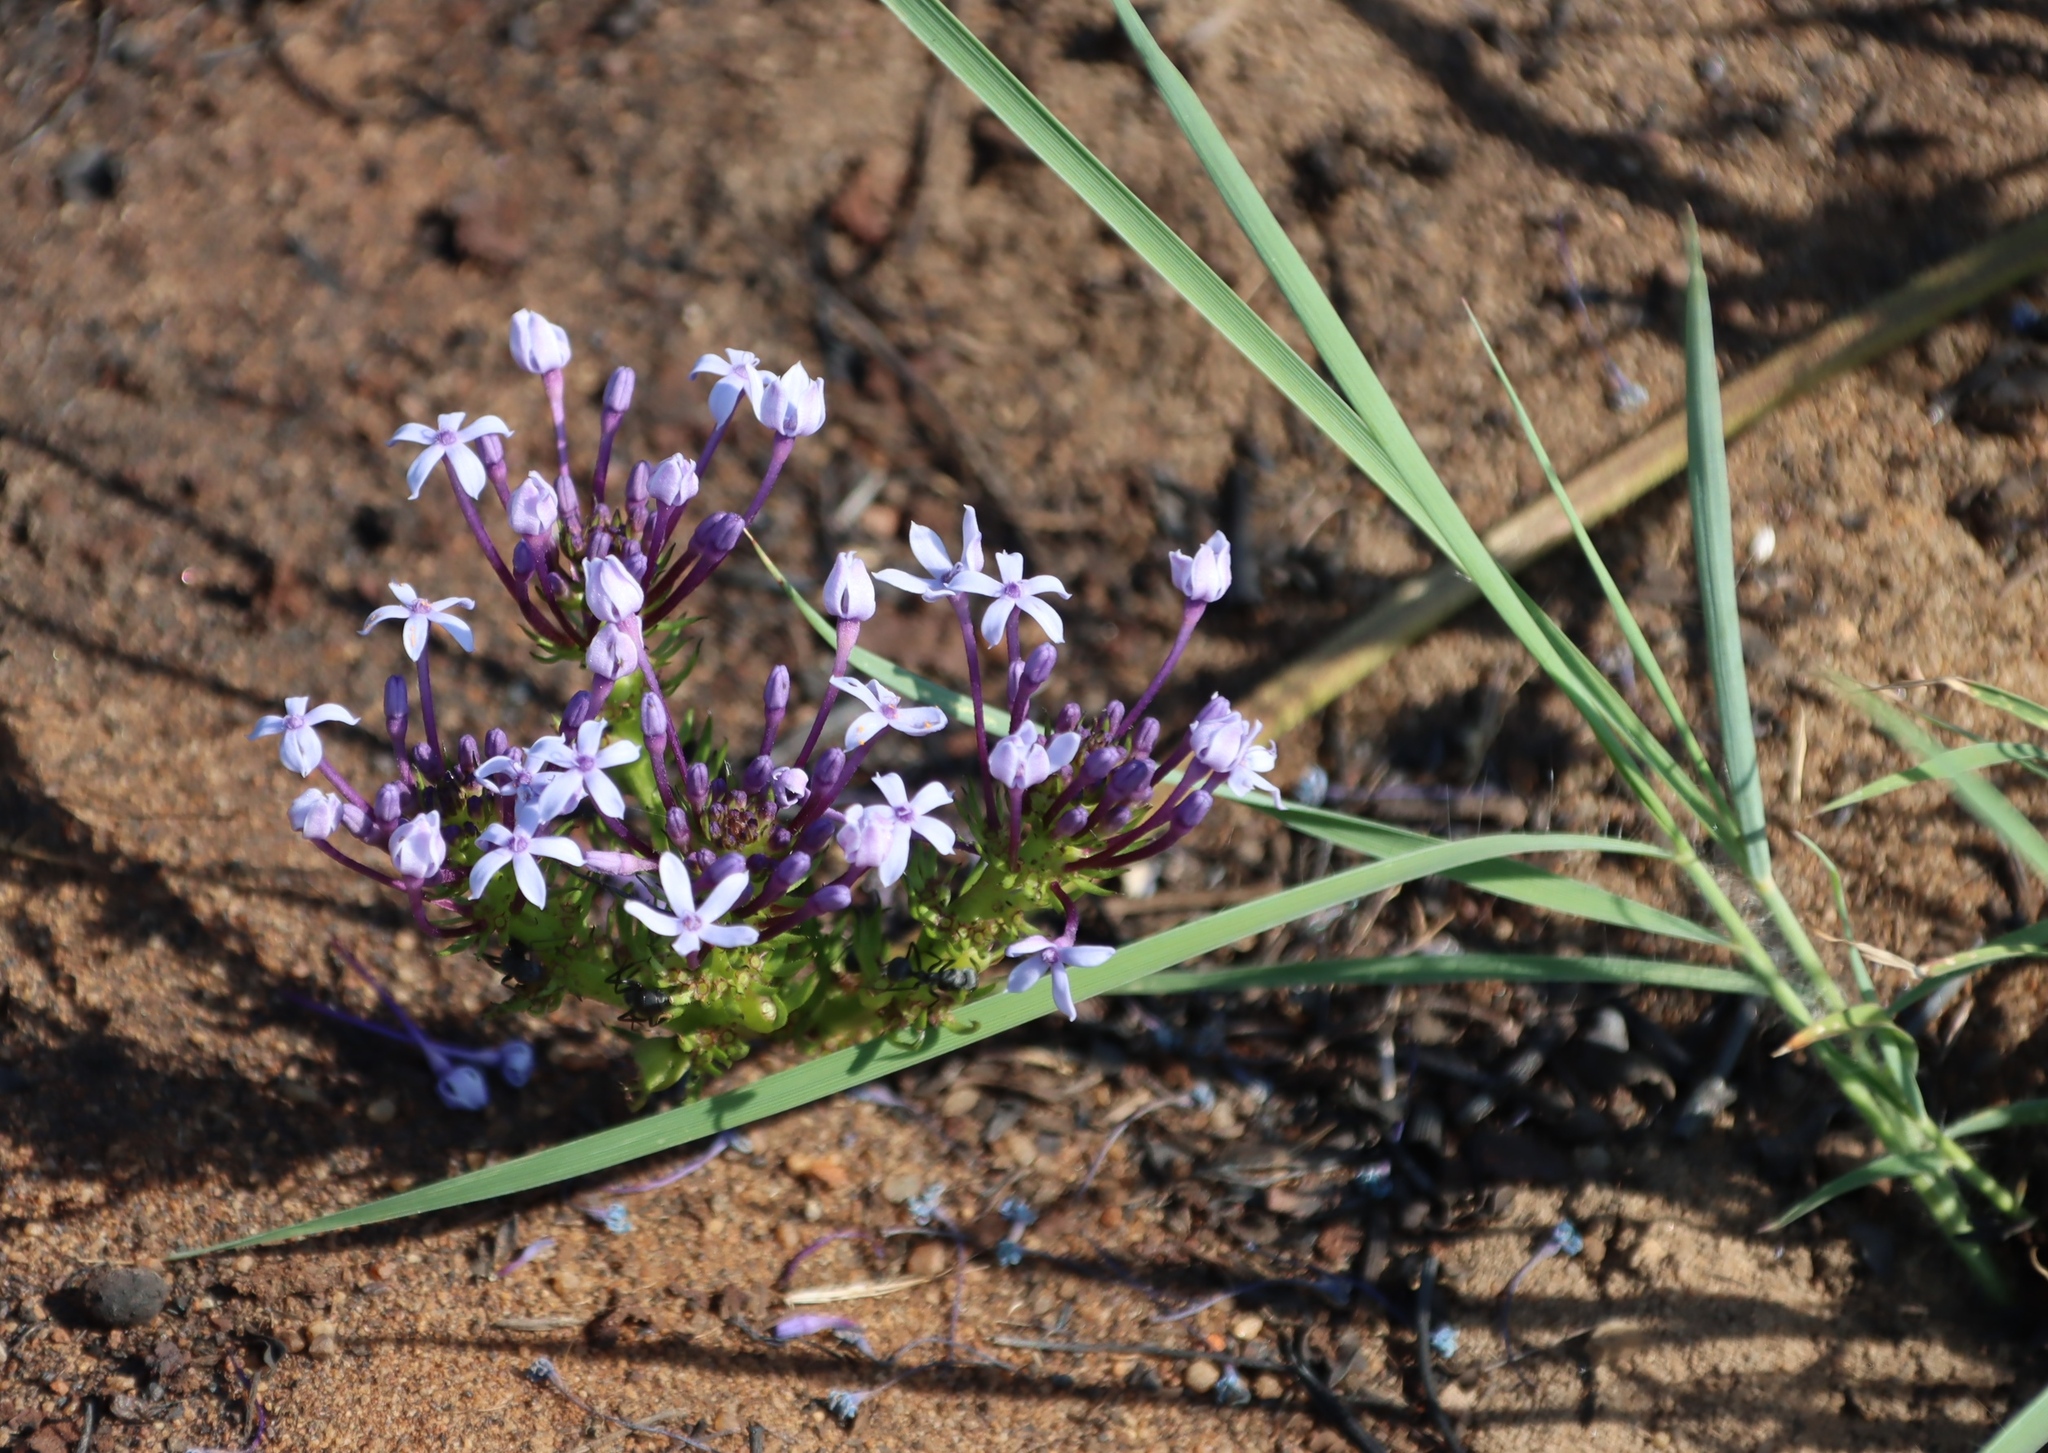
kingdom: Plantae
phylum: Tracheophyta
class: Magnoliopsida
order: Gentianales
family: Rubiaceae
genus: Pentanisia
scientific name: Pentanisia angustifolia
